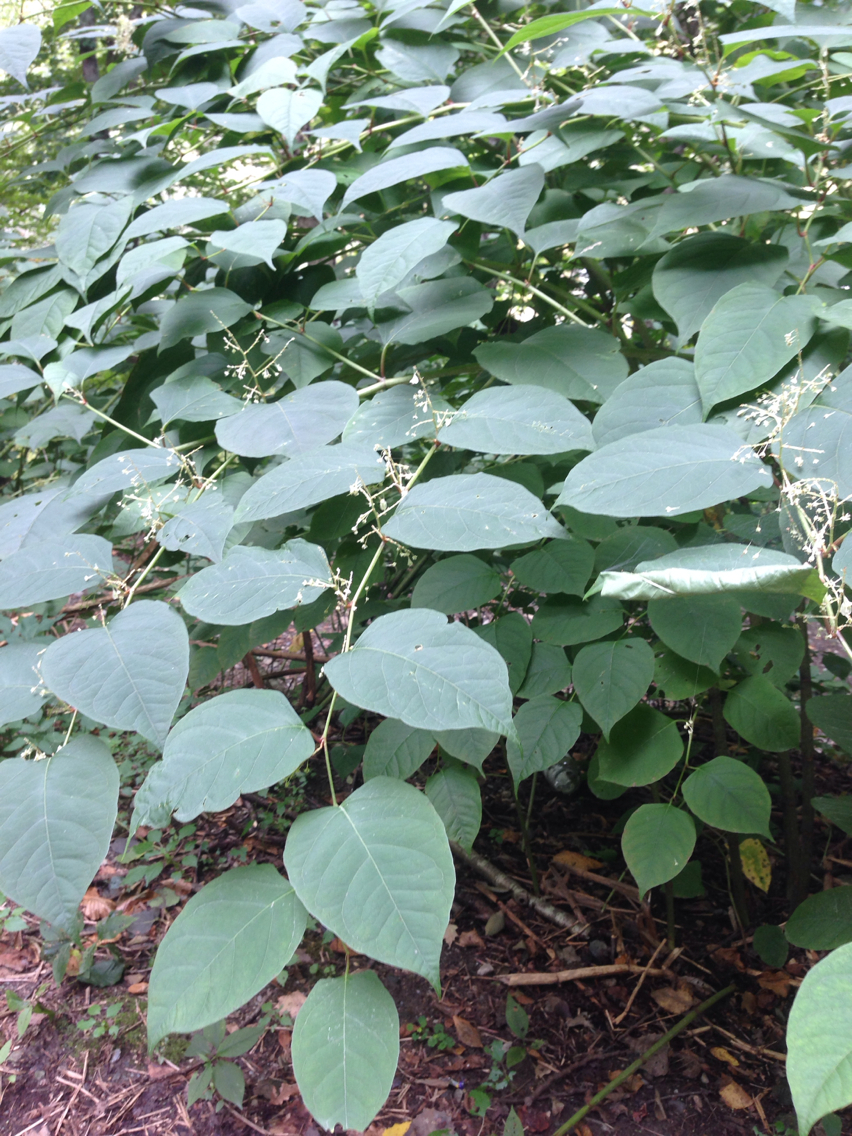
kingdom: Plantae
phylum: Tracheophyta
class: Magnoliopsida
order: Caryophyllales
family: Polygonaceae
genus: Reynoutria
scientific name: Reynoutria japonica
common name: Japanese knotweed
